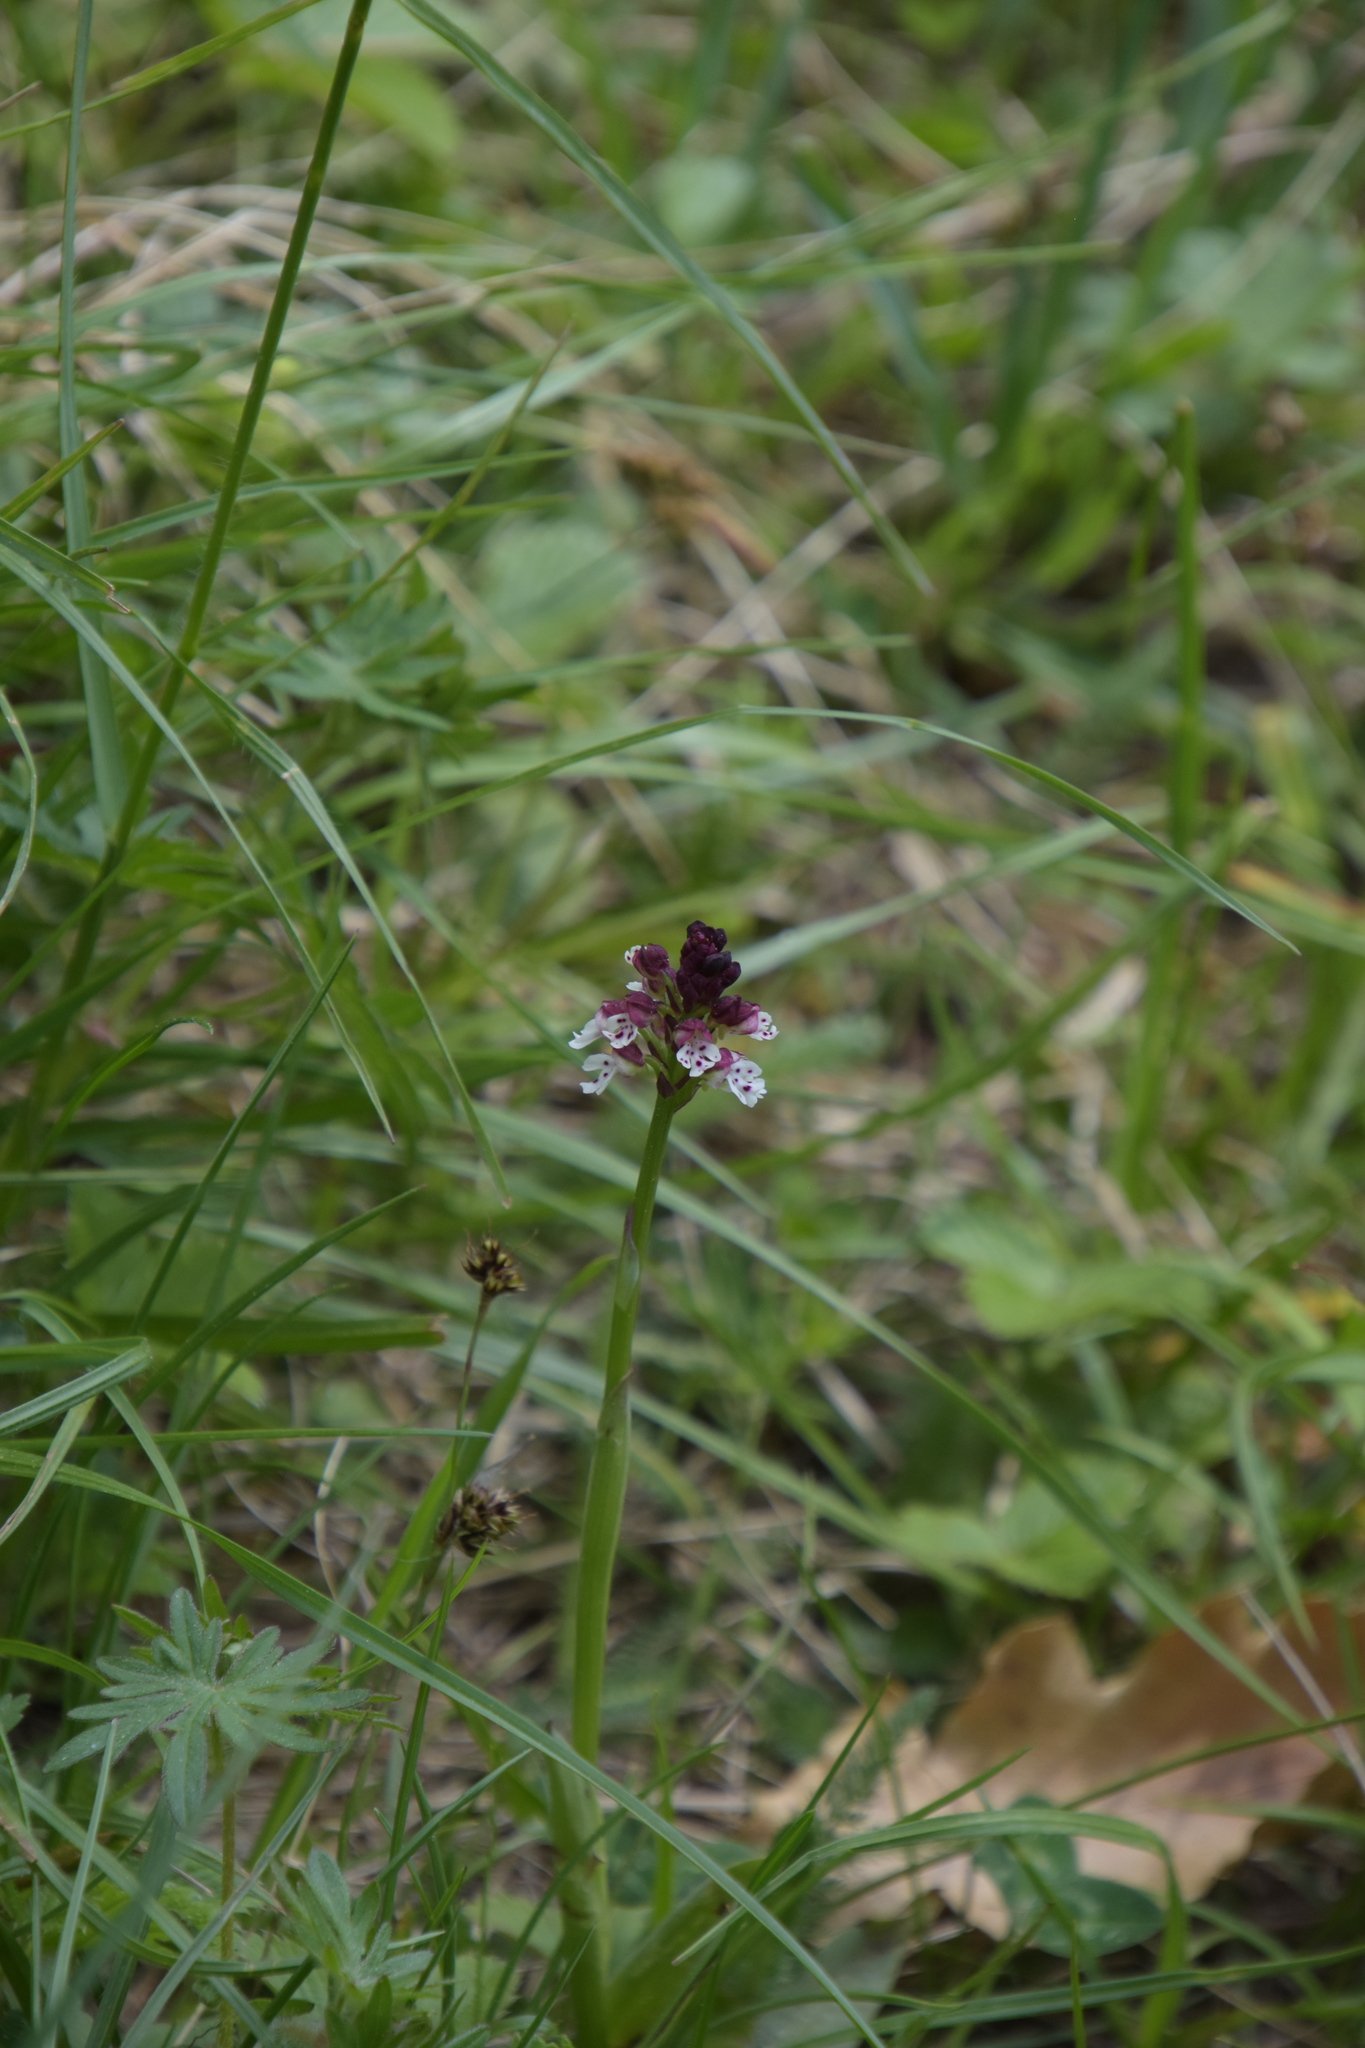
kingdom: Plantae
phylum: Tracheophyta
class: Liliopsida
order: Asparagales
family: Orchidaceae
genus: Neotinea
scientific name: Neotinea ustulata
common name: Burnt orchid
